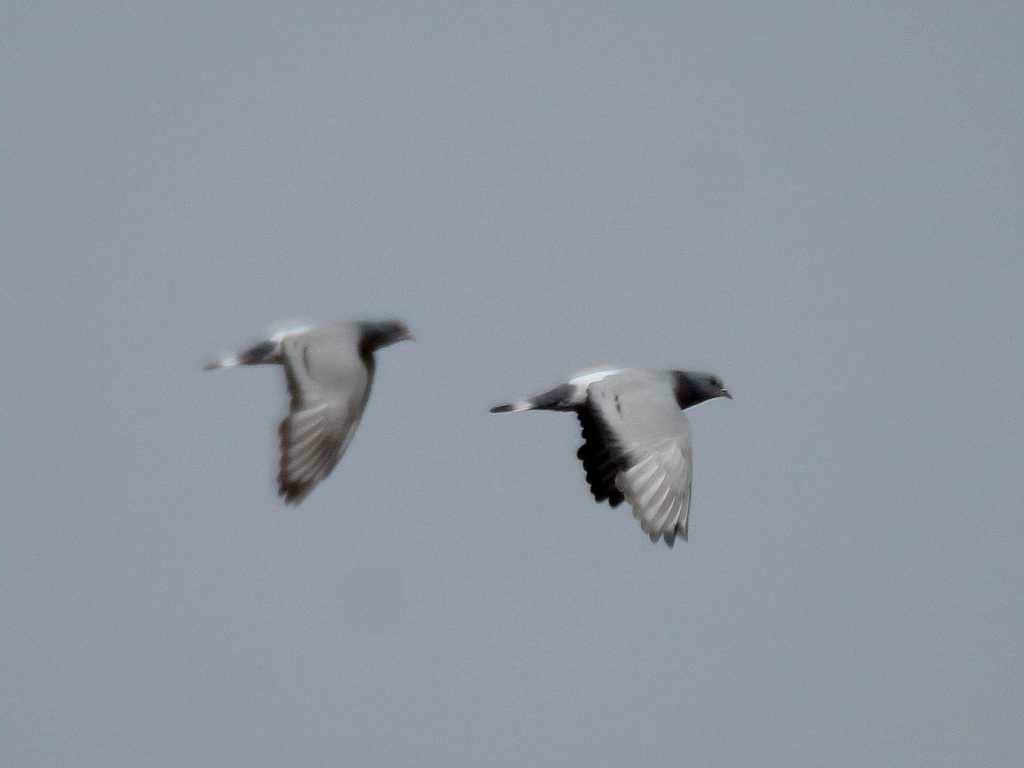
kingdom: Animalia
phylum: Chordata
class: Aves
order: Columbiformes
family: Columbidae
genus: Columba
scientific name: Columba rupestris
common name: Hill pigeon
